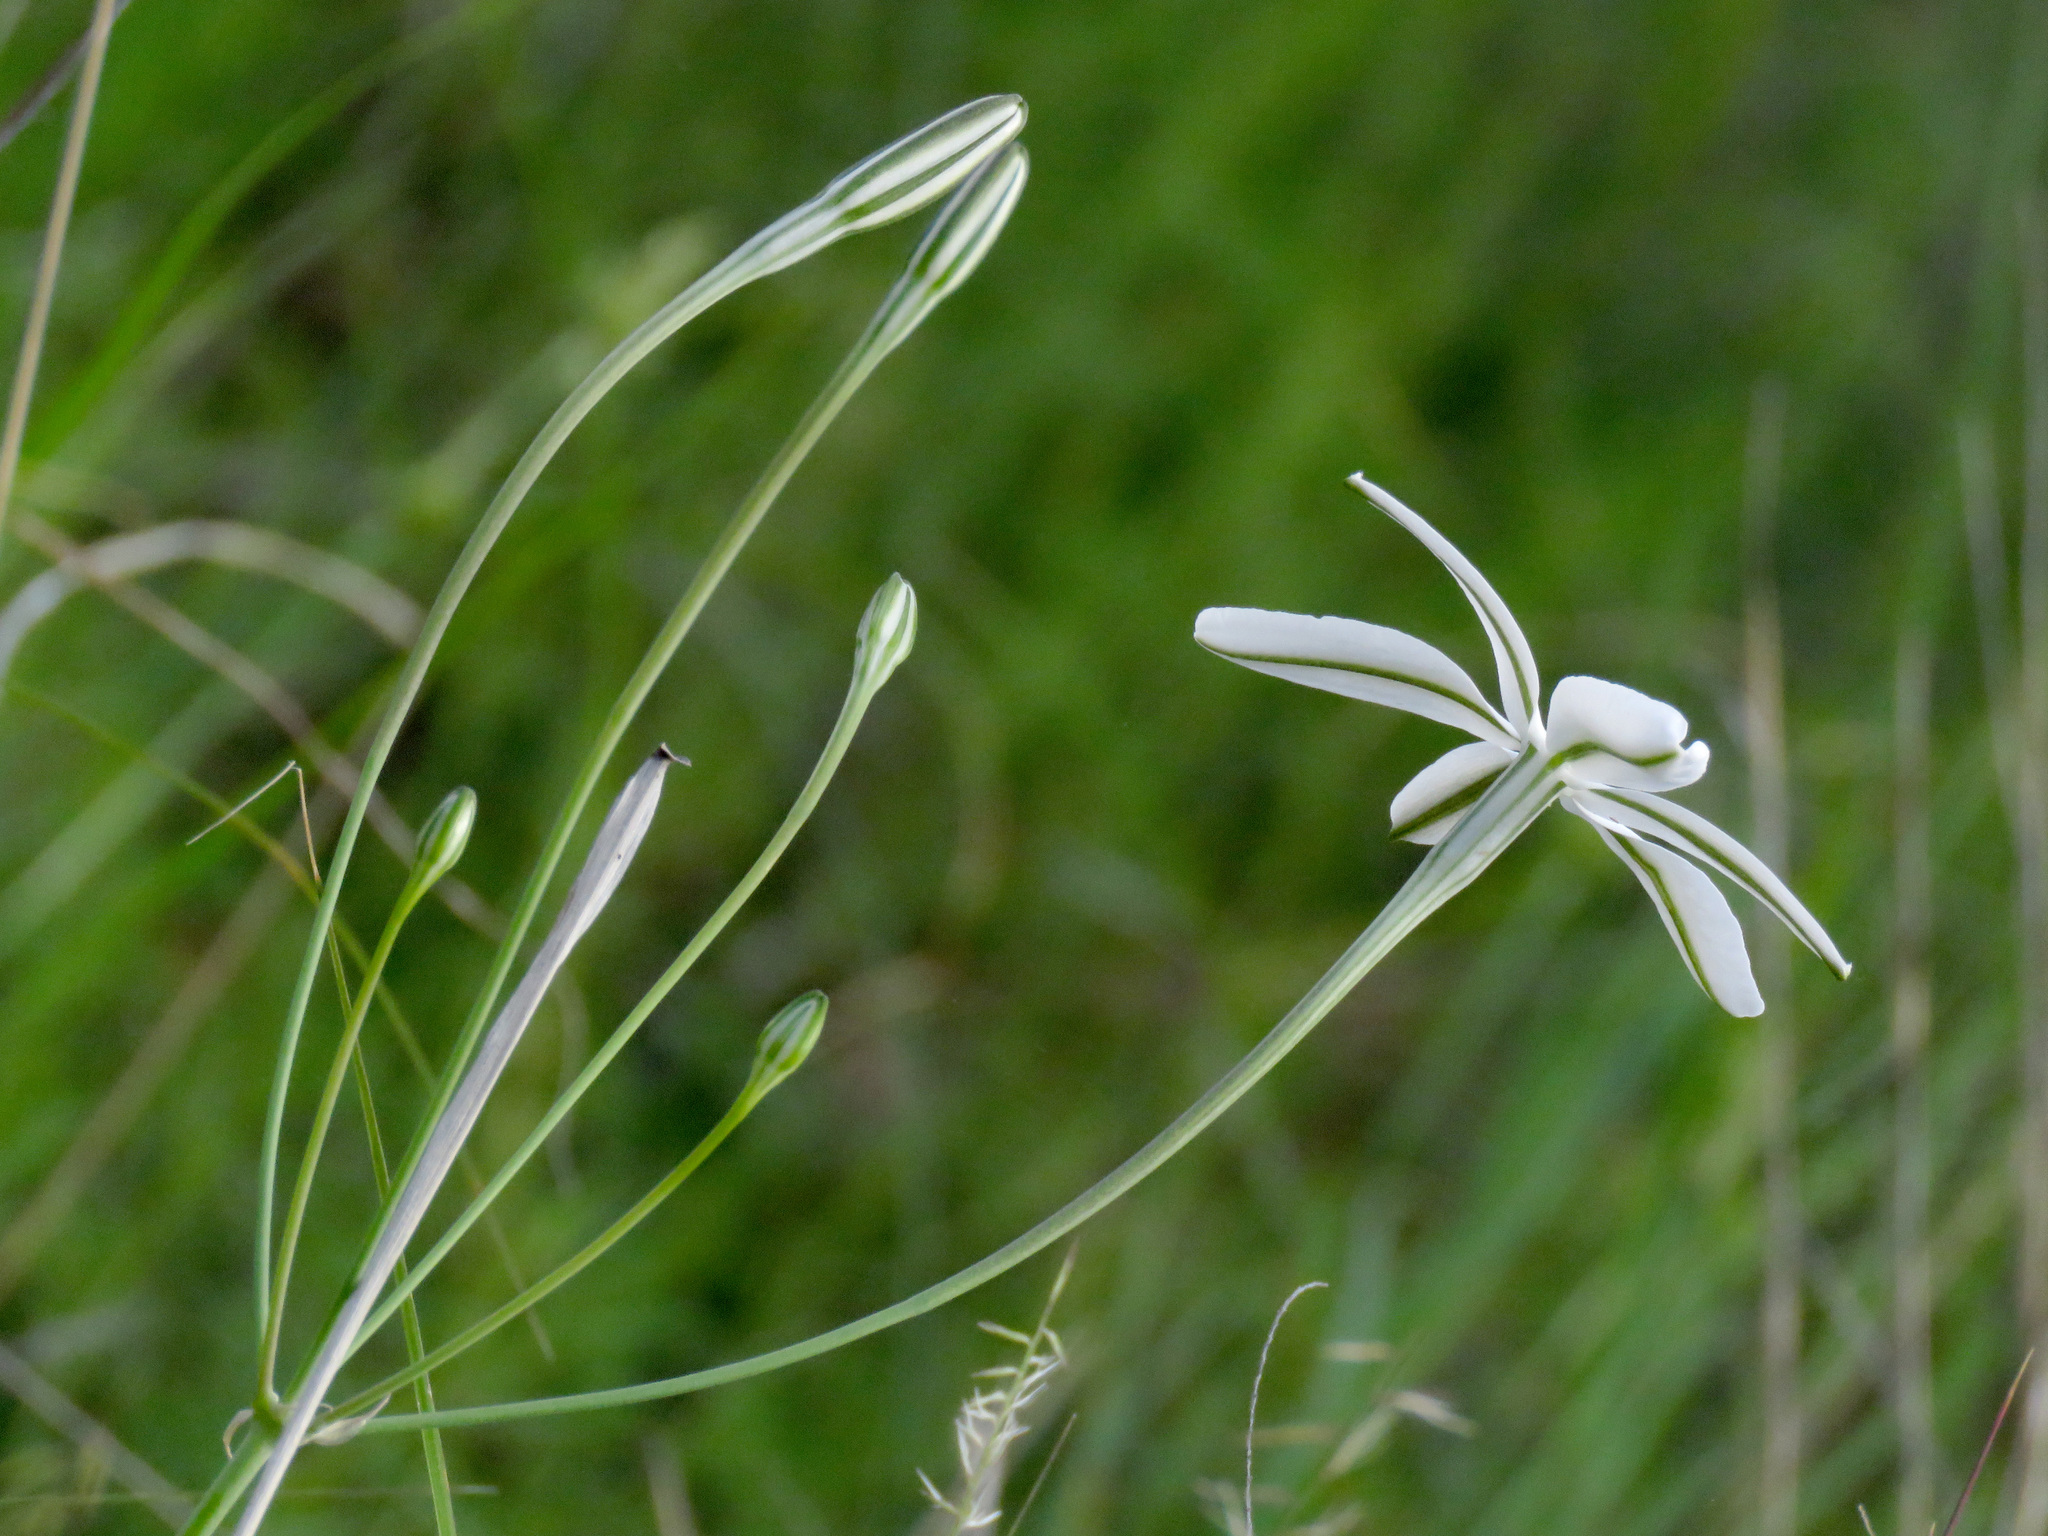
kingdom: Plantae
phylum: Tracheophyta
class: Liliopsida
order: Asparagales
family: Asparagaceae
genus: Milla
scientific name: Milla biflora
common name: Mexican-star
